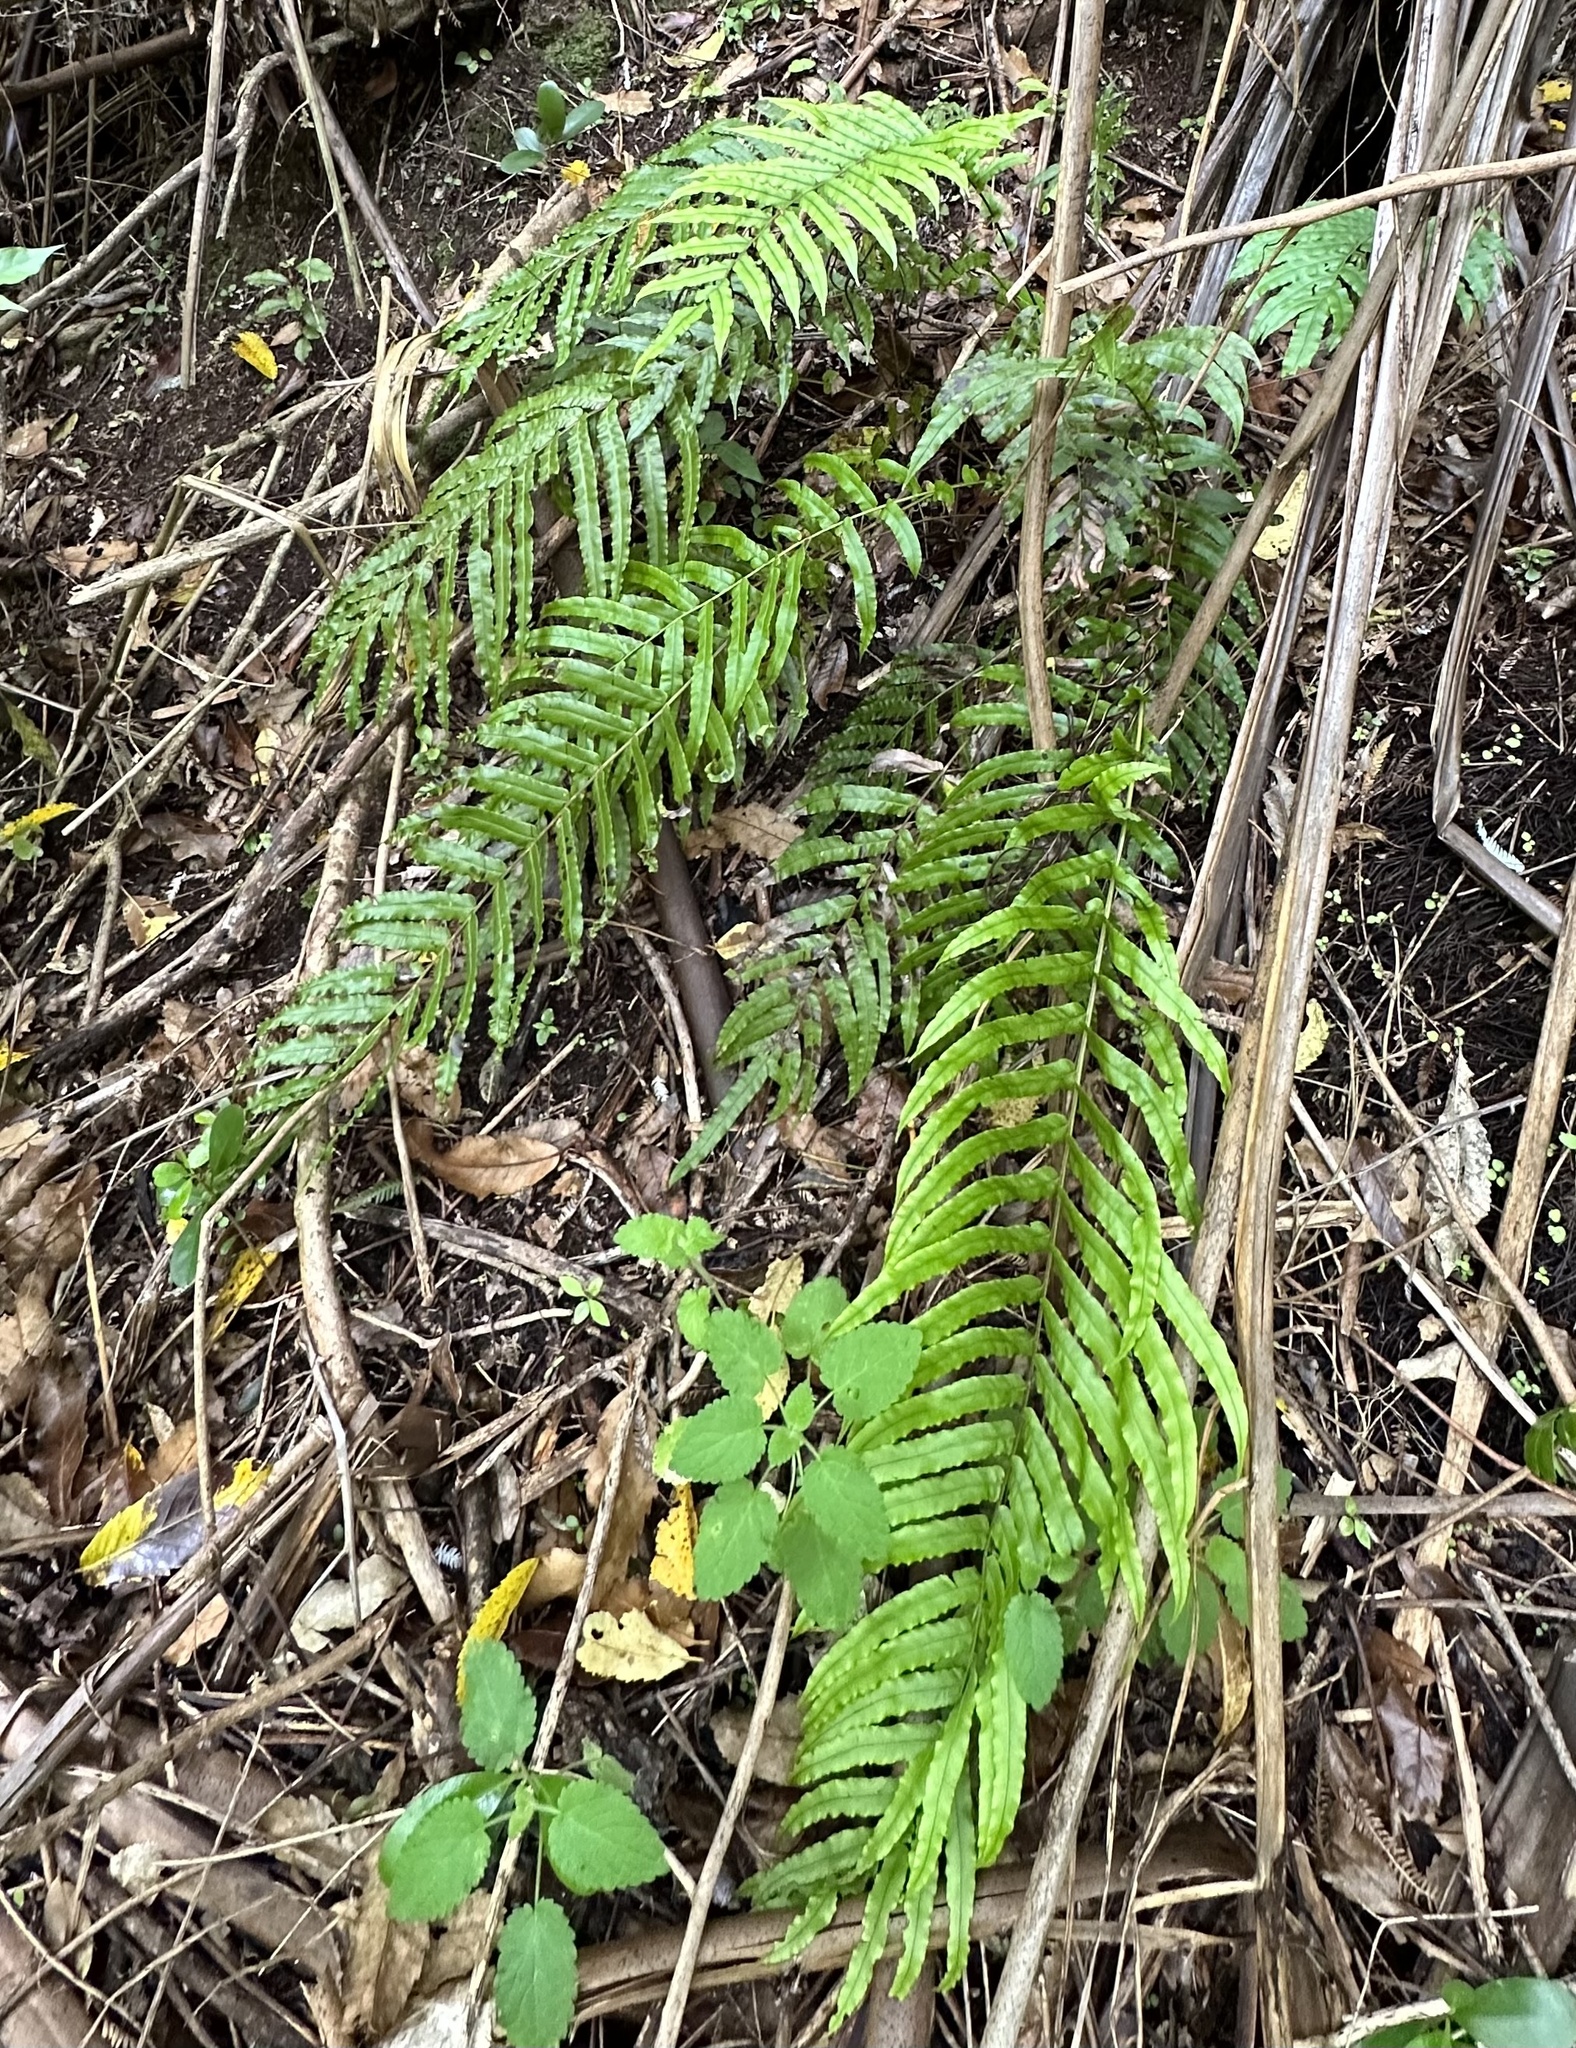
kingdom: Plantae
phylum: Tracheophyta
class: Polypodiopsida
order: Polypodiales
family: Blechnaceae
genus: Parablechnum
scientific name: Parablechnum minus
